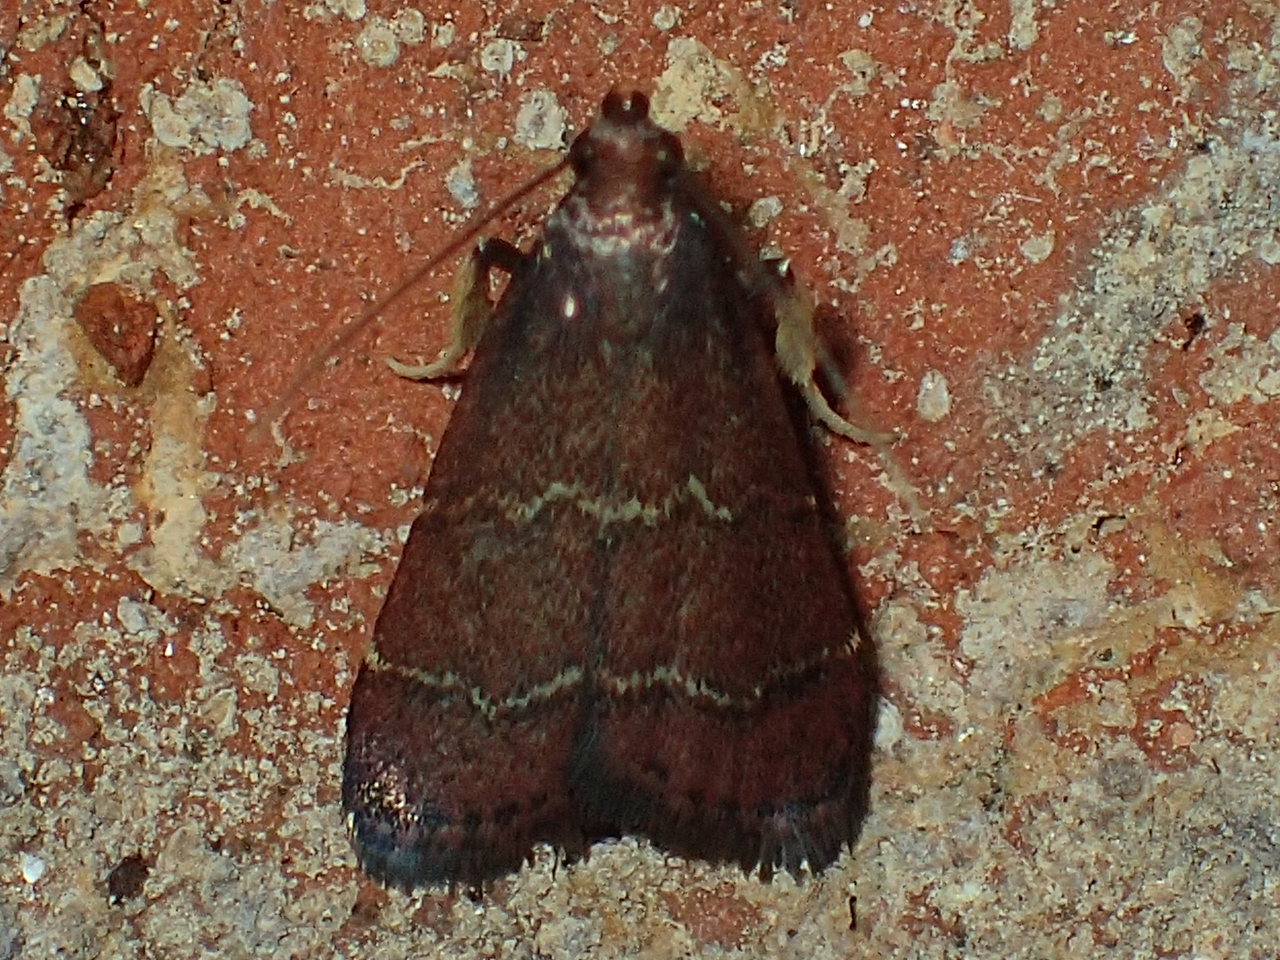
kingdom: Animalia
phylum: Arthropoda
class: Insecta
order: Lepidoptera
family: Pyralidae
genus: Arta
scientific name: Arta
